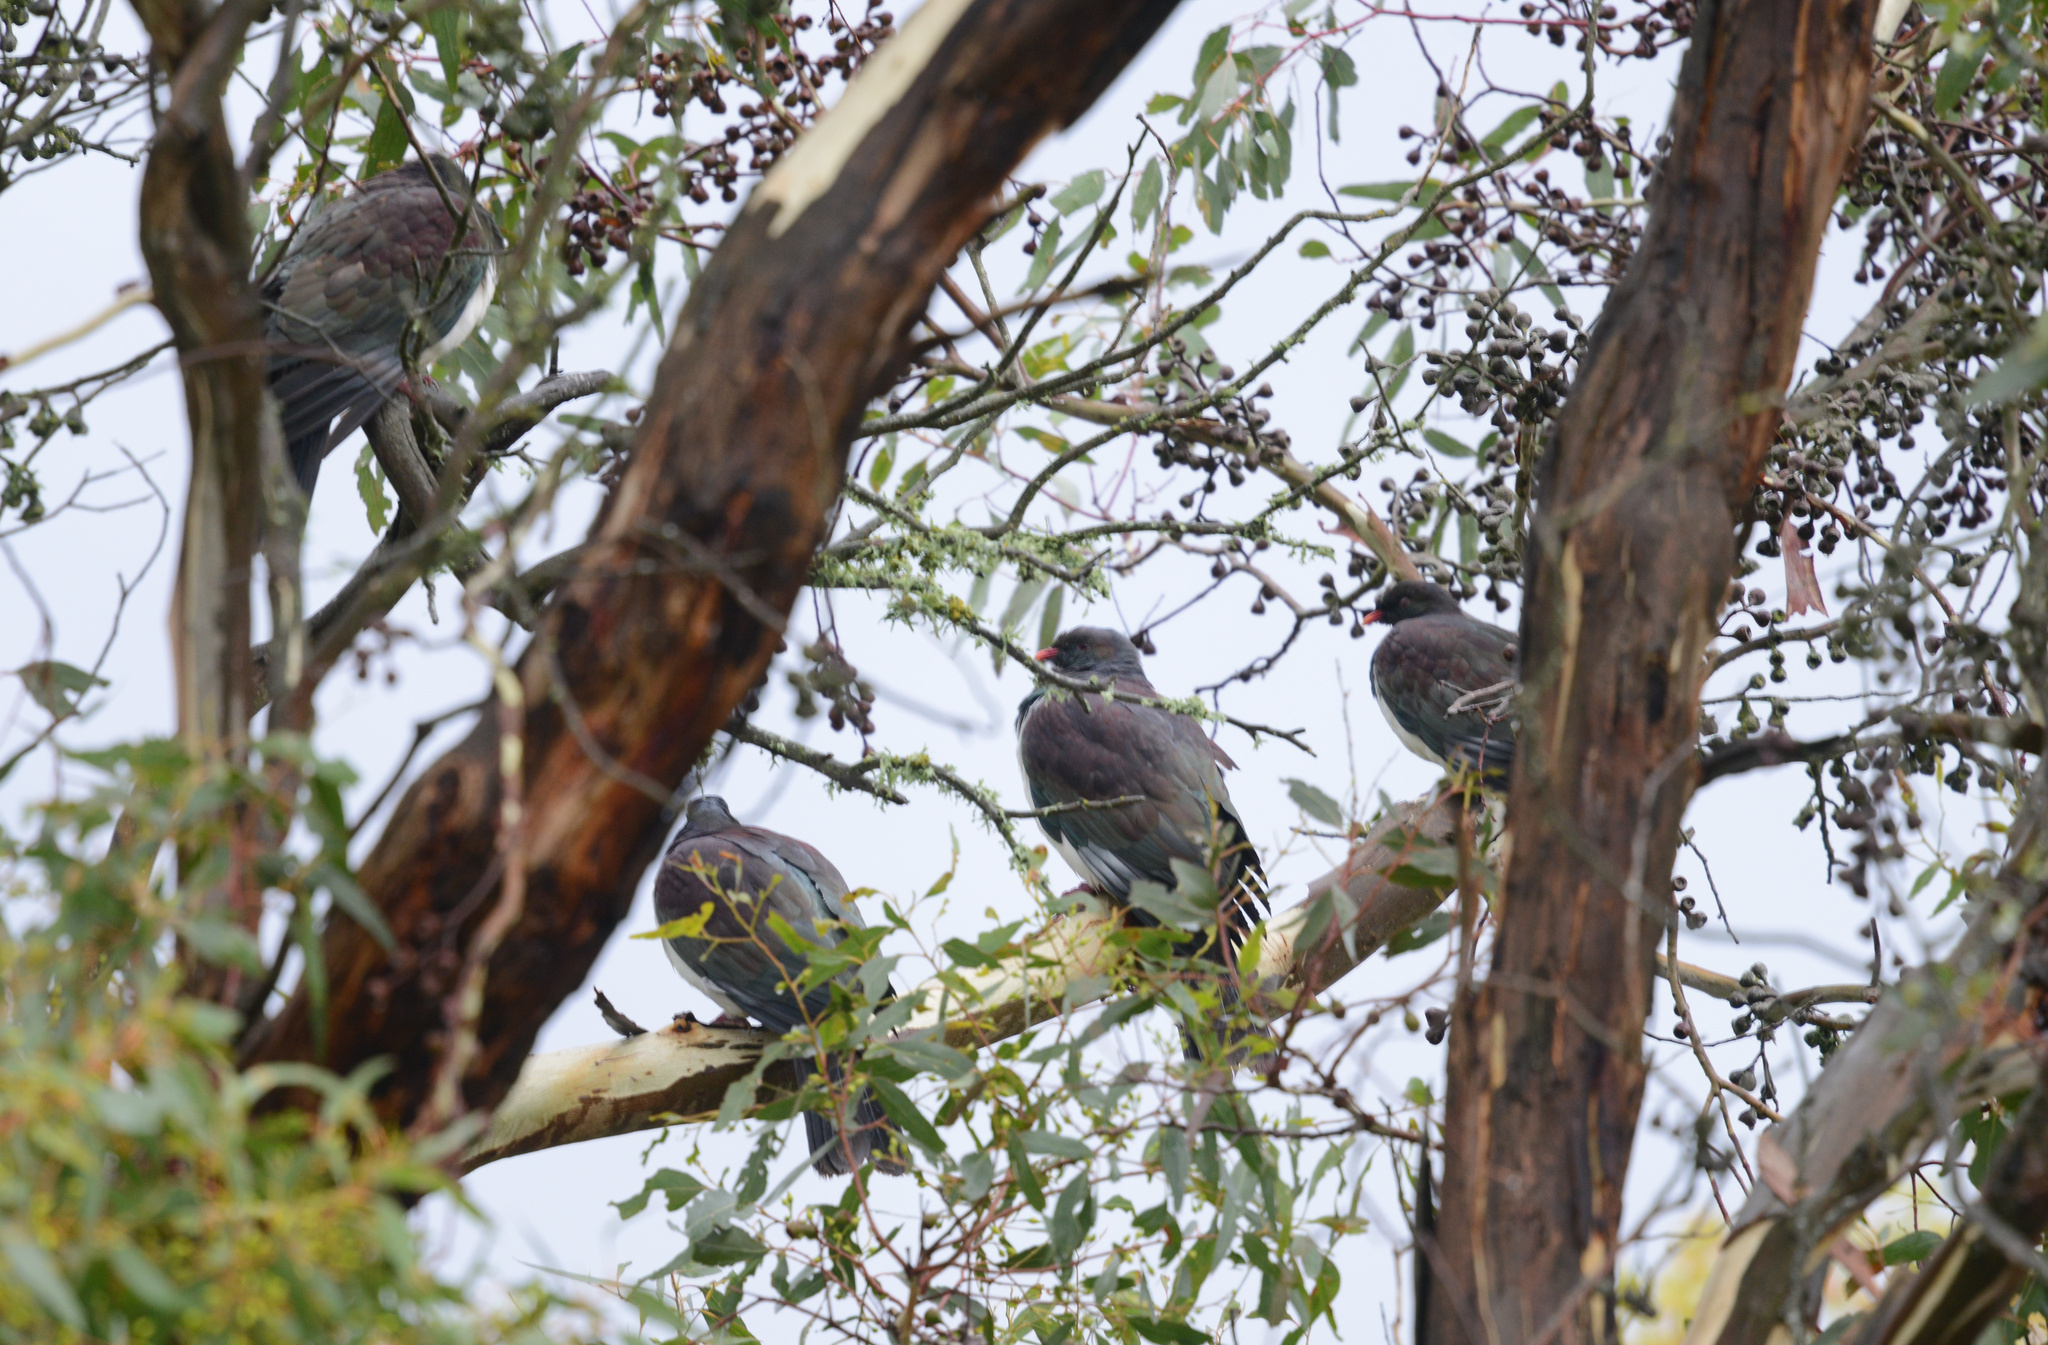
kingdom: Animalia
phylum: Chordata
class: Aves
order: Columbiformes
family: Columbidae
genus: Hemiphaga
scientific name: Hemiphaga novaeseelandiae
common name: New zealand pigeon
